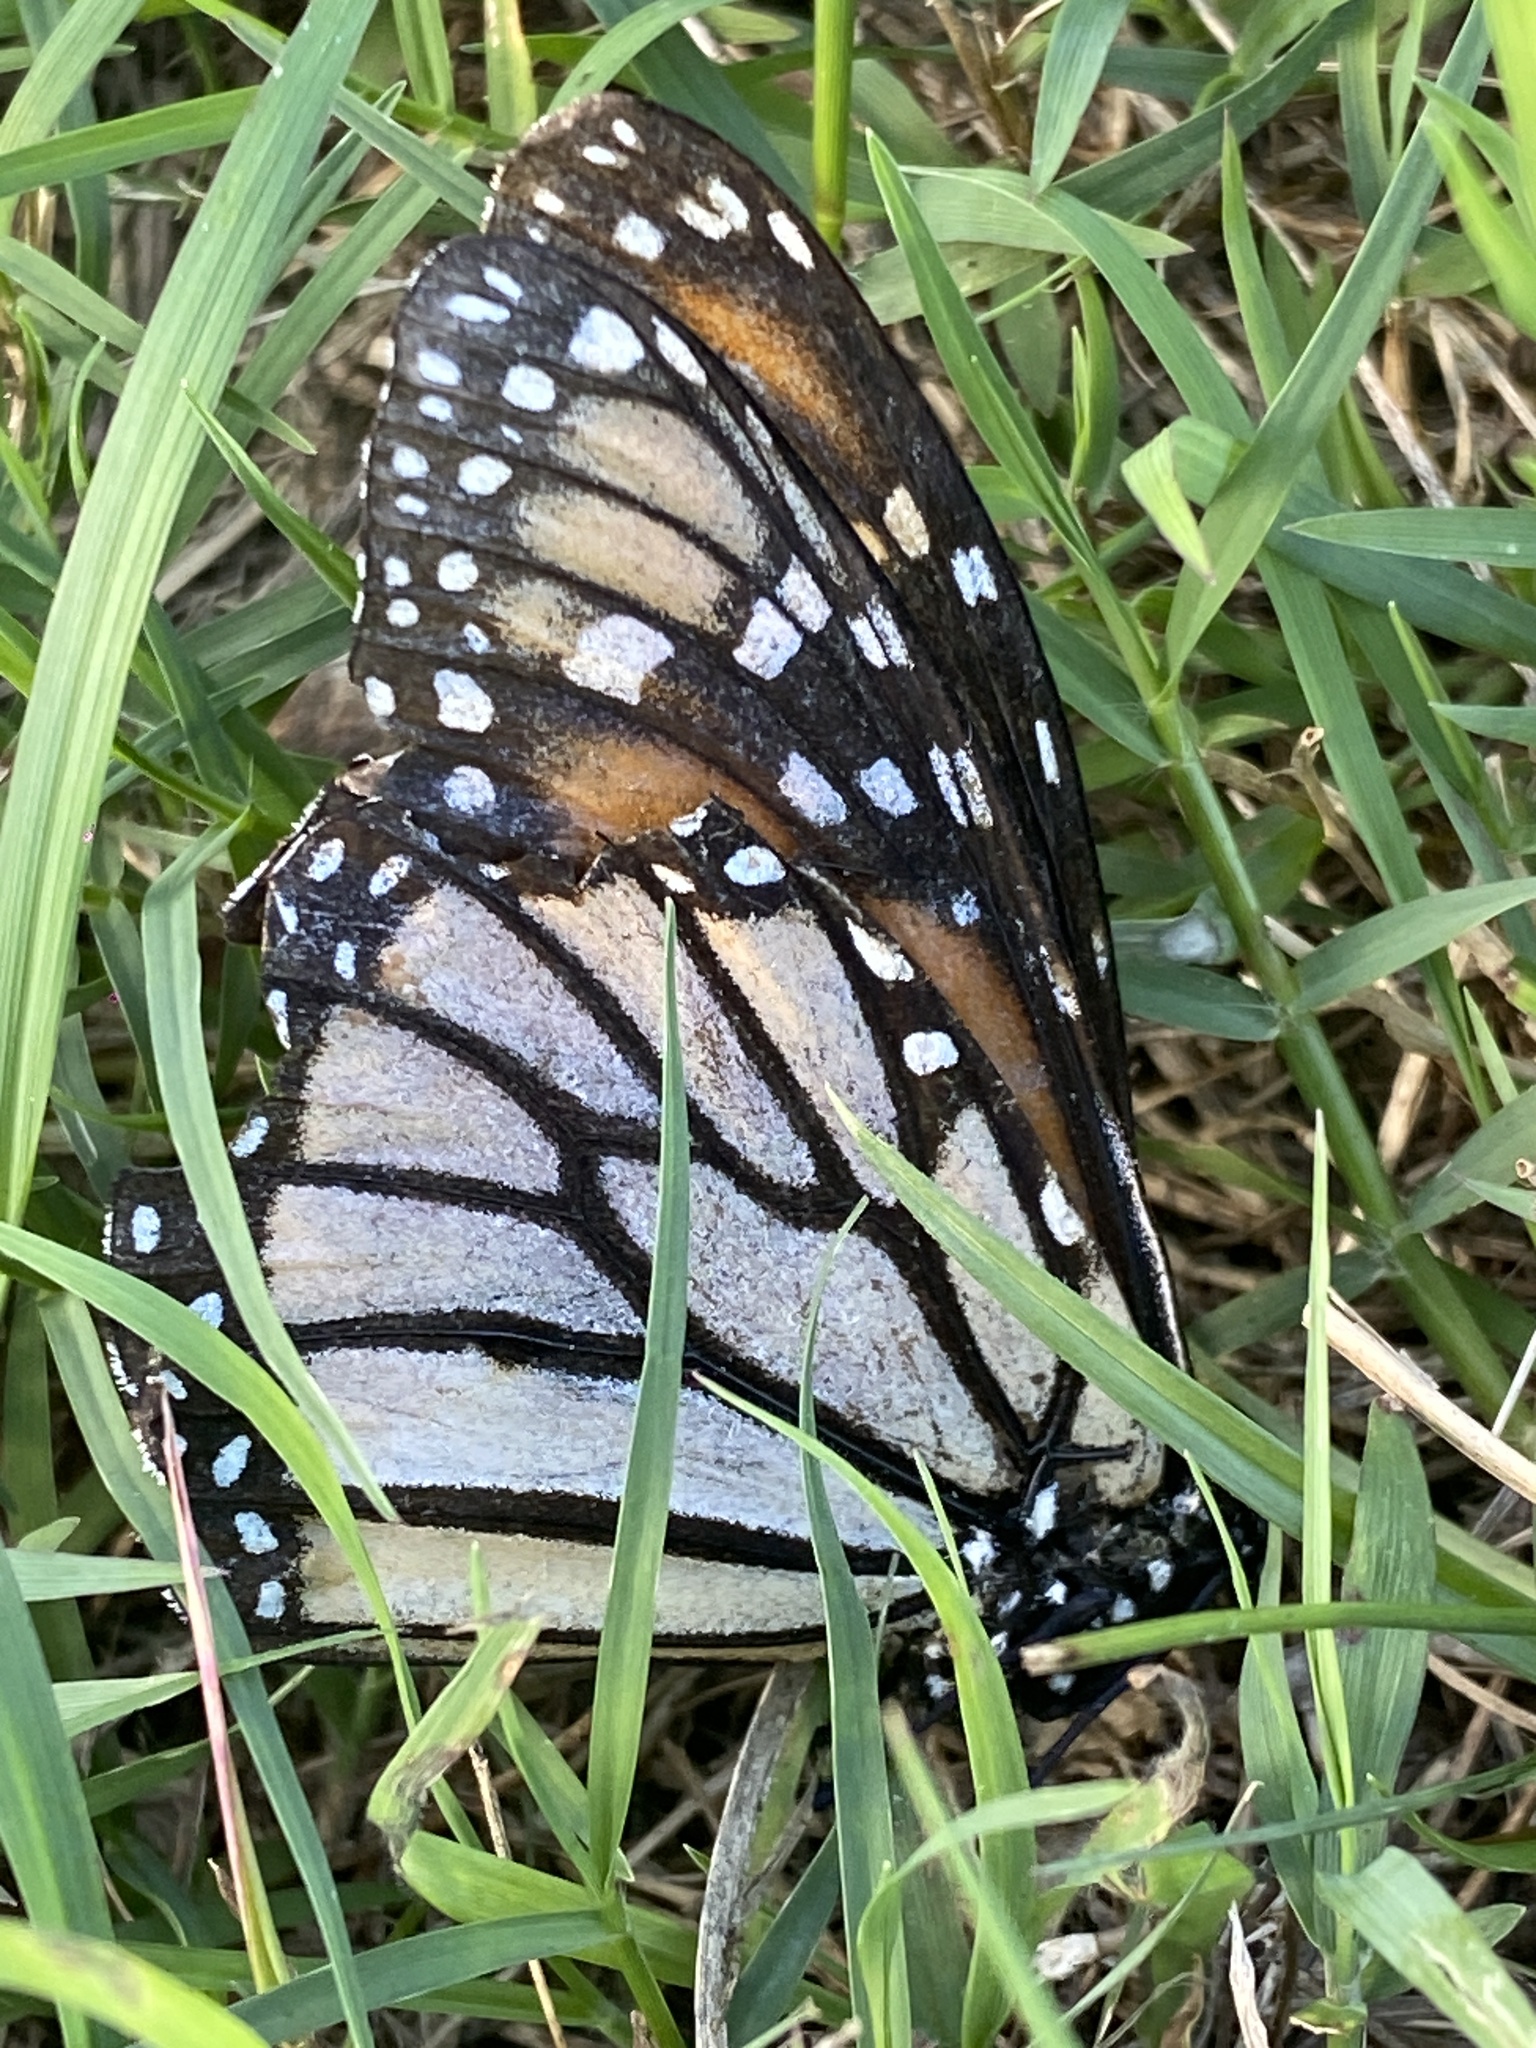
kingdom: Animalia
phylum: Arthropoda
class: Insecta
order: Lepidoptera
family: Nymphalidae
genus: Danaus
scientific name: Danaus plexippus
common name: Monarch
